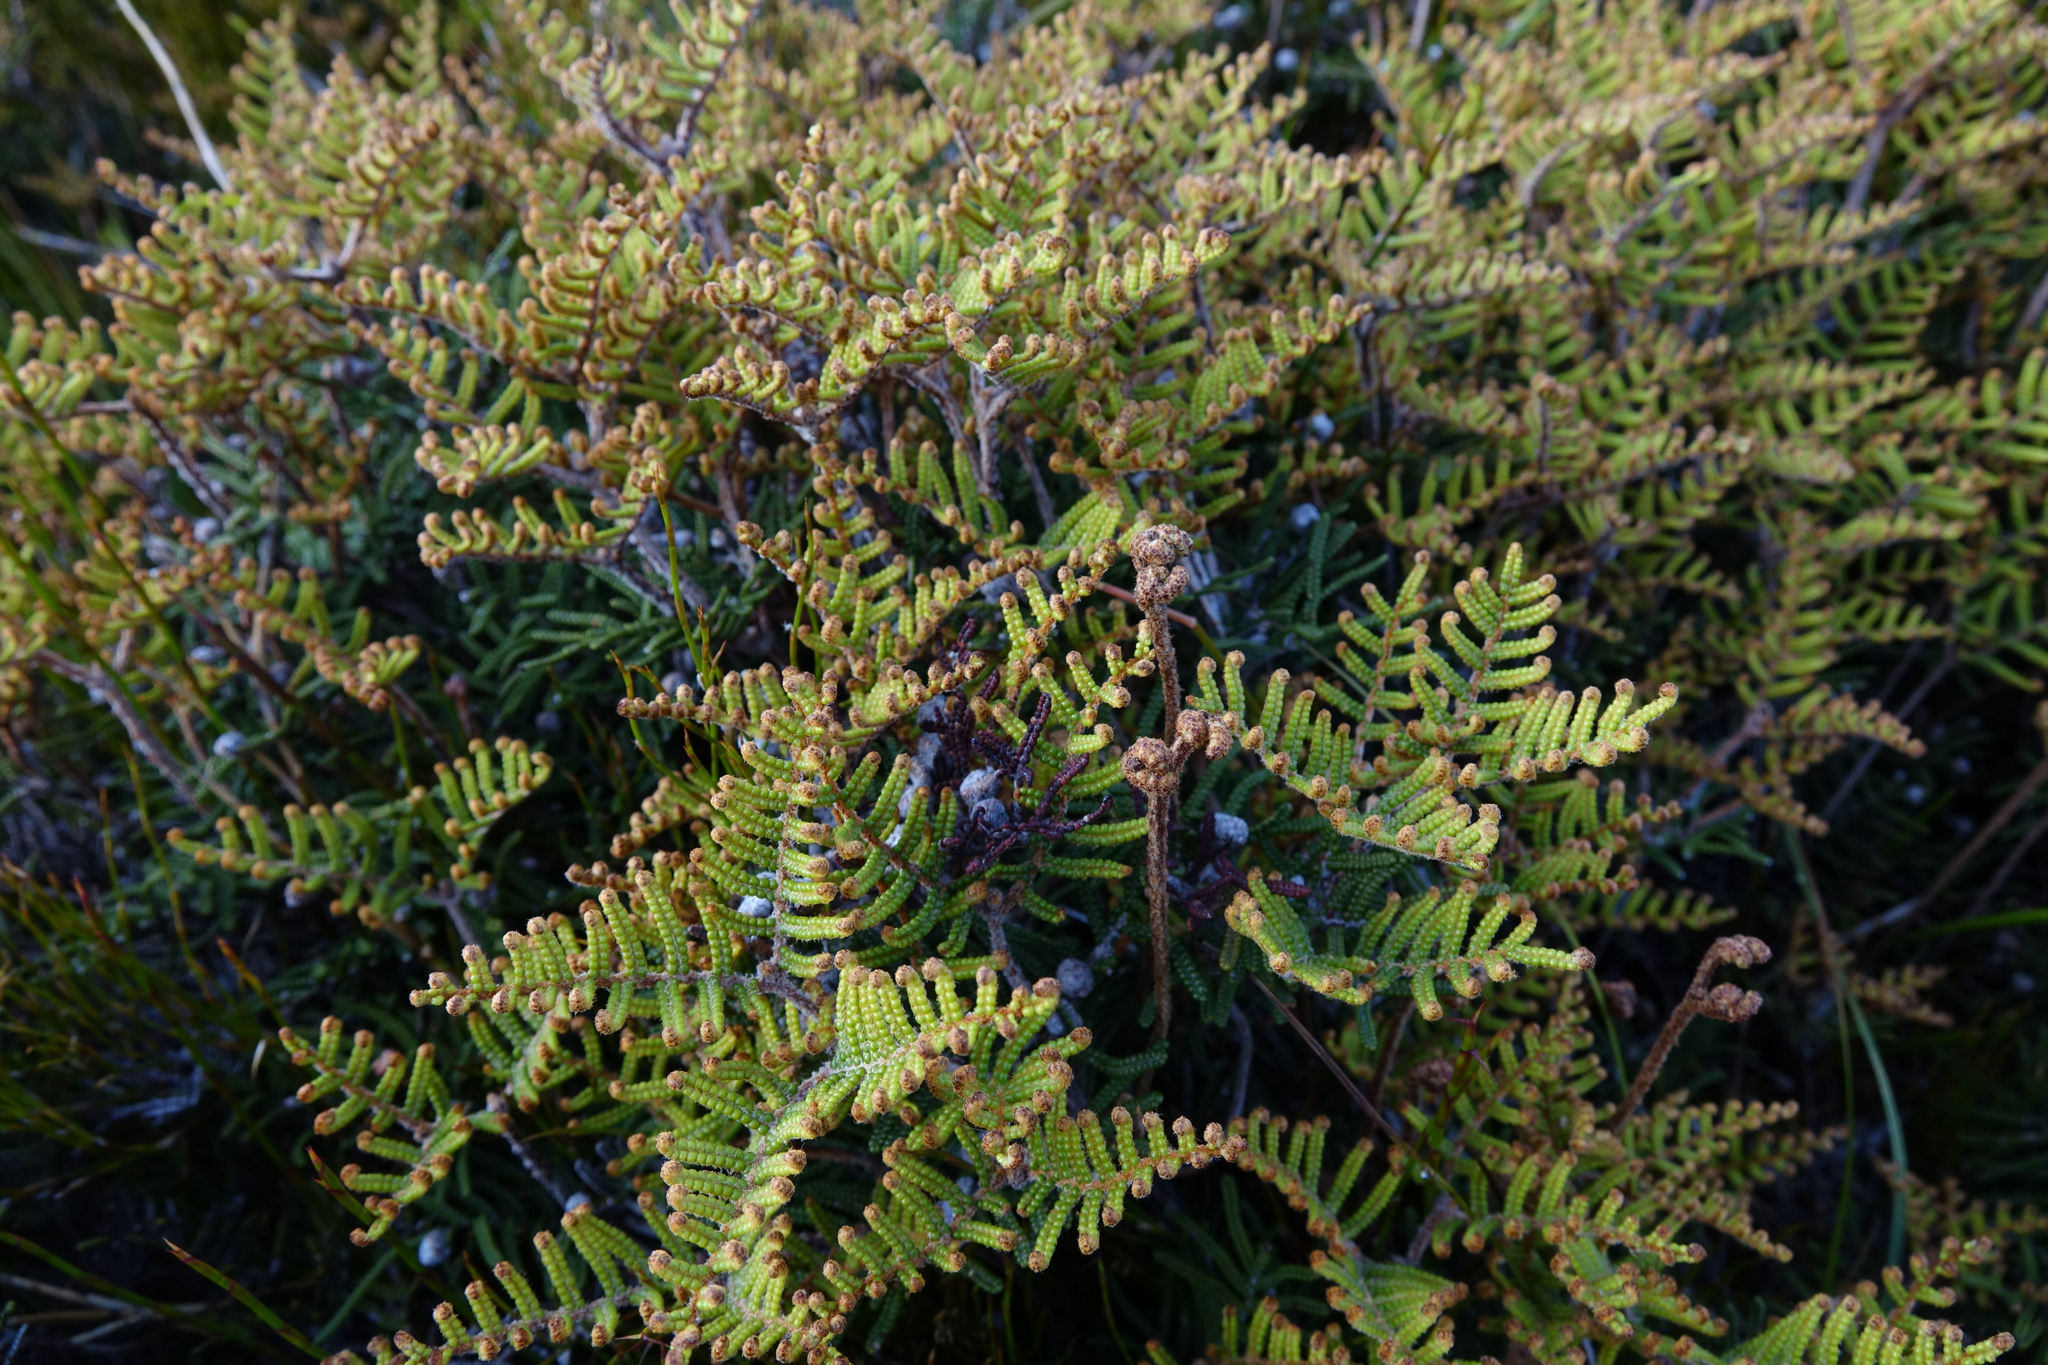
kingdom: Plantae
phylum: Tracheophyta
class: Polypodiopsida
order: Gleicheniales
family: Gleicheniaceae
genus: Gleichenia
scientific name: Gleichenia alpina
